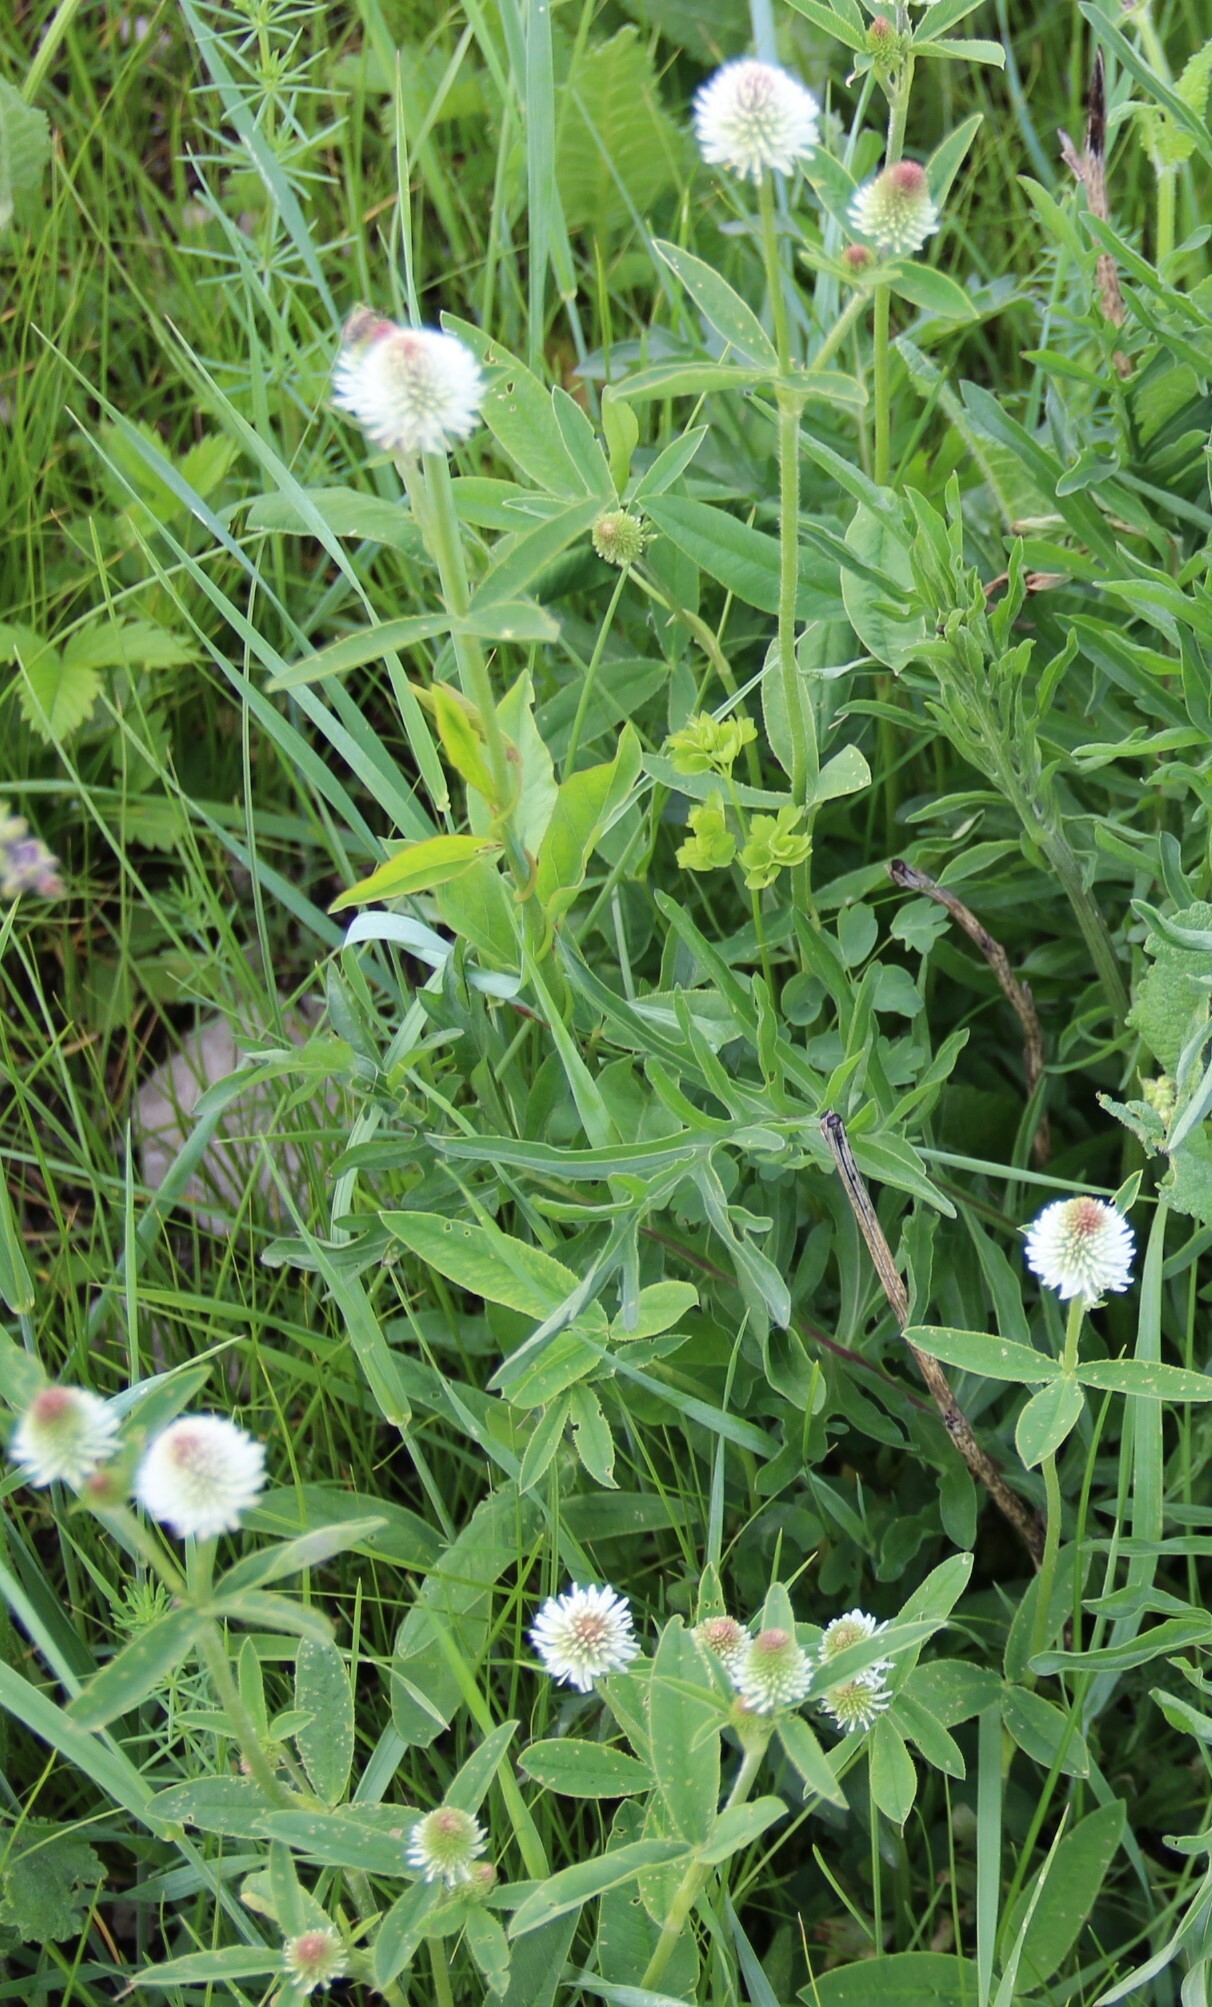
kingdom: Plantae
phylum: Tracheophyta
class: Magnoliopsida
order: Fabales
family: Fabaceae
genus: Trifolium
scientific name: Trifolium montanum
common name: Mountain clover
